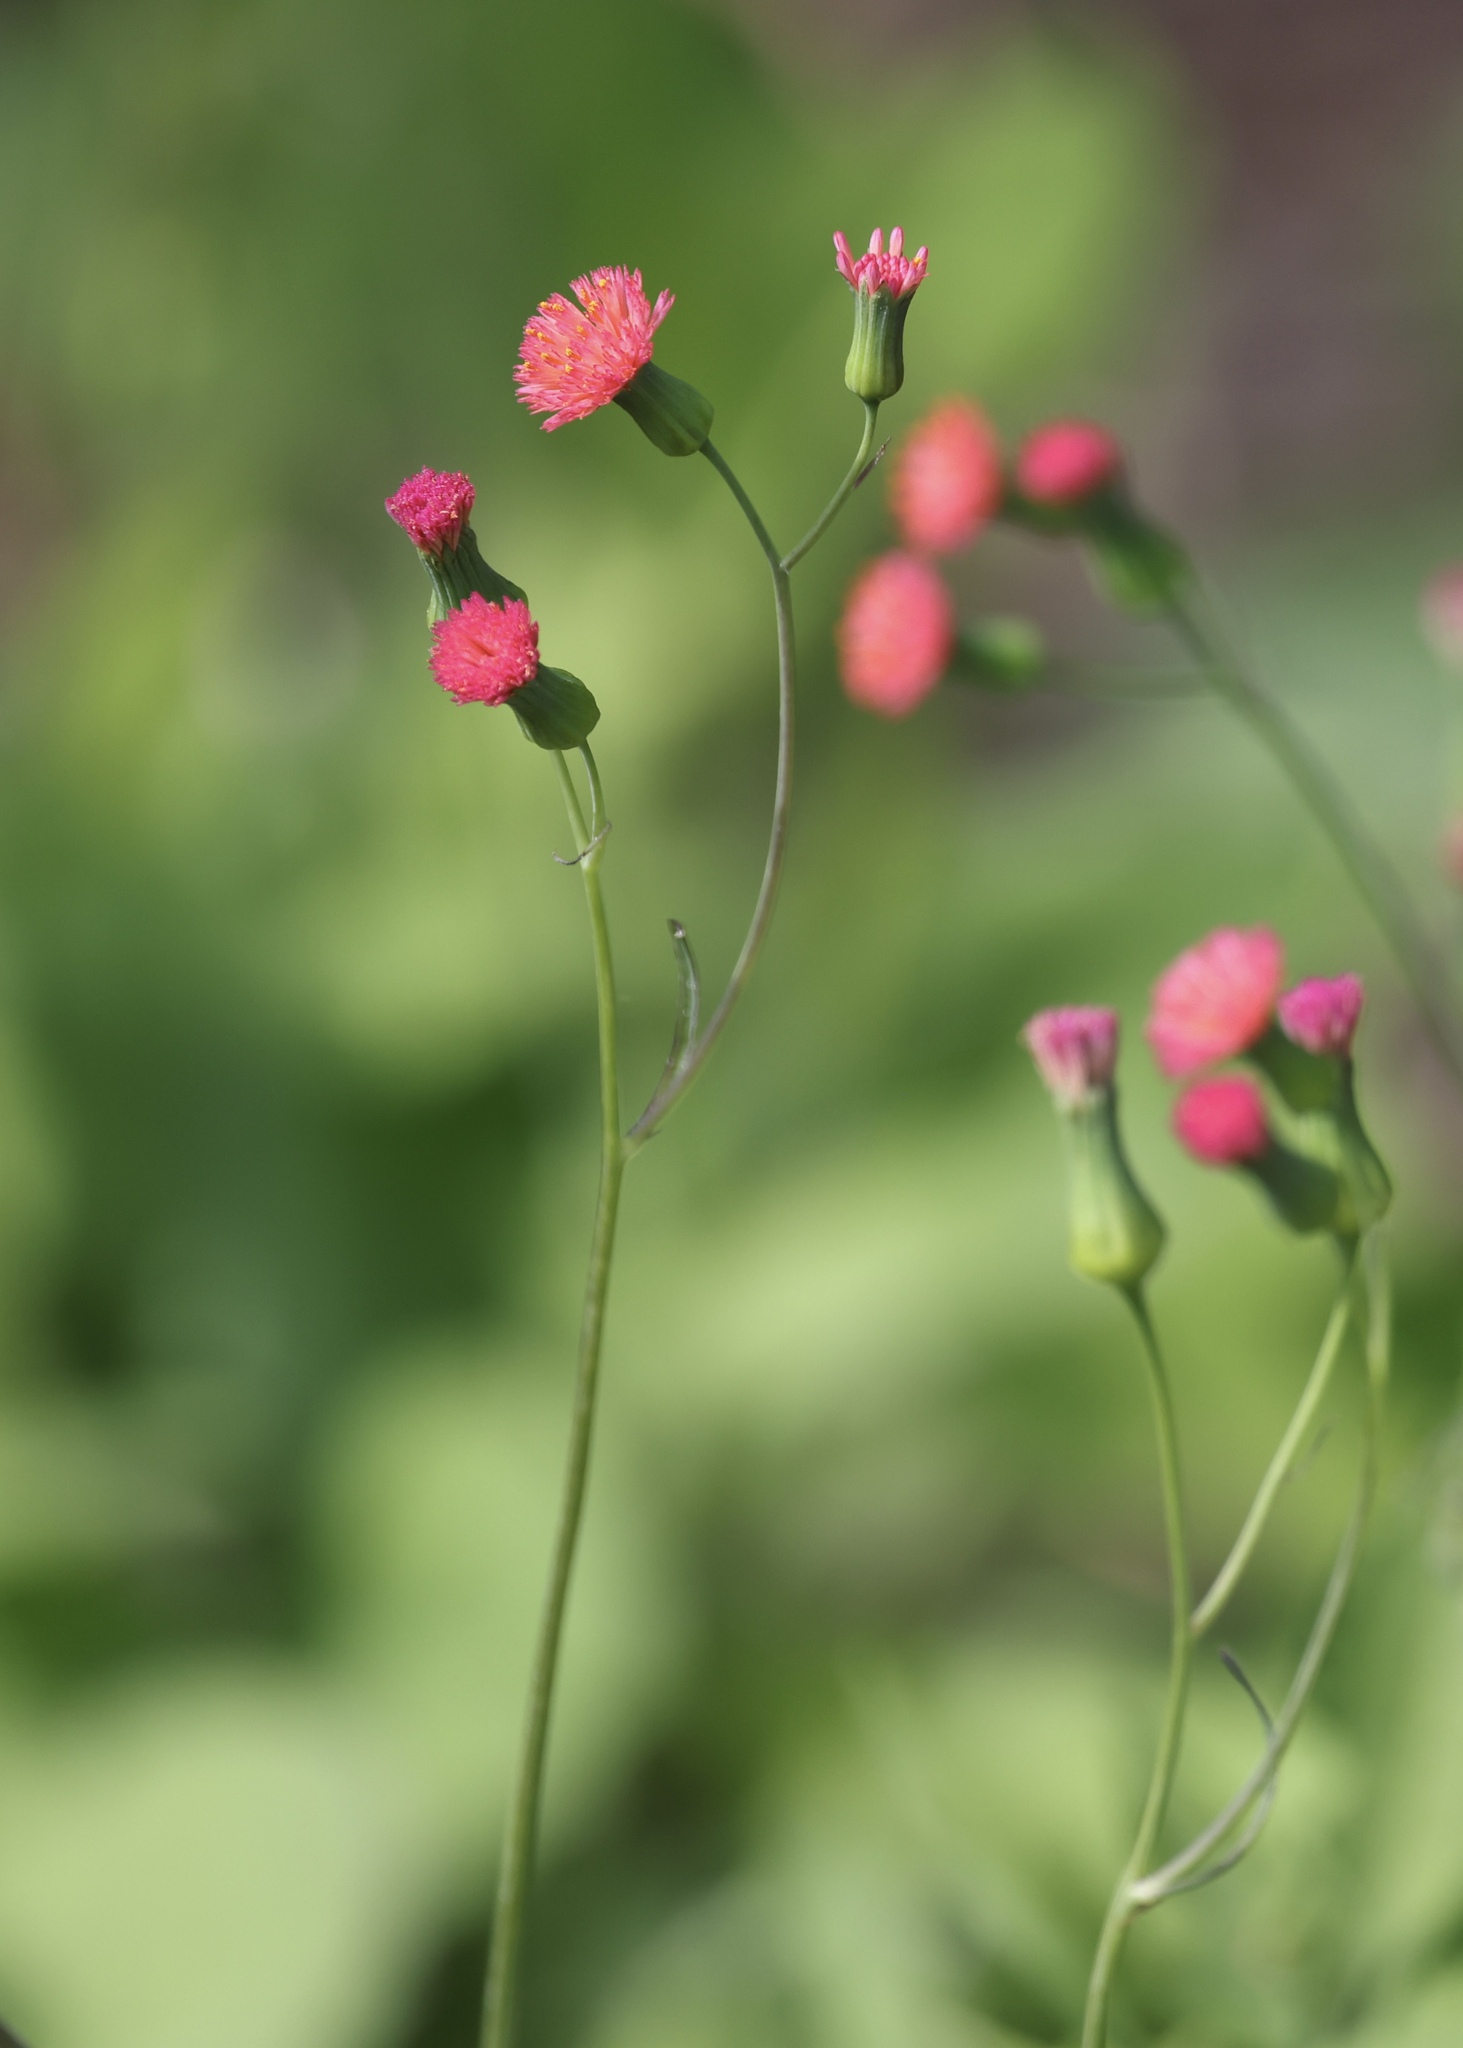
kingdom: Plantae
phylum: Tracheophyta
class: Magnoliopsida
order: Asterales
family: Asteraceae
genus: Emilia
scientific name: Emilia fosbergii
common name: Florida tasselflower
